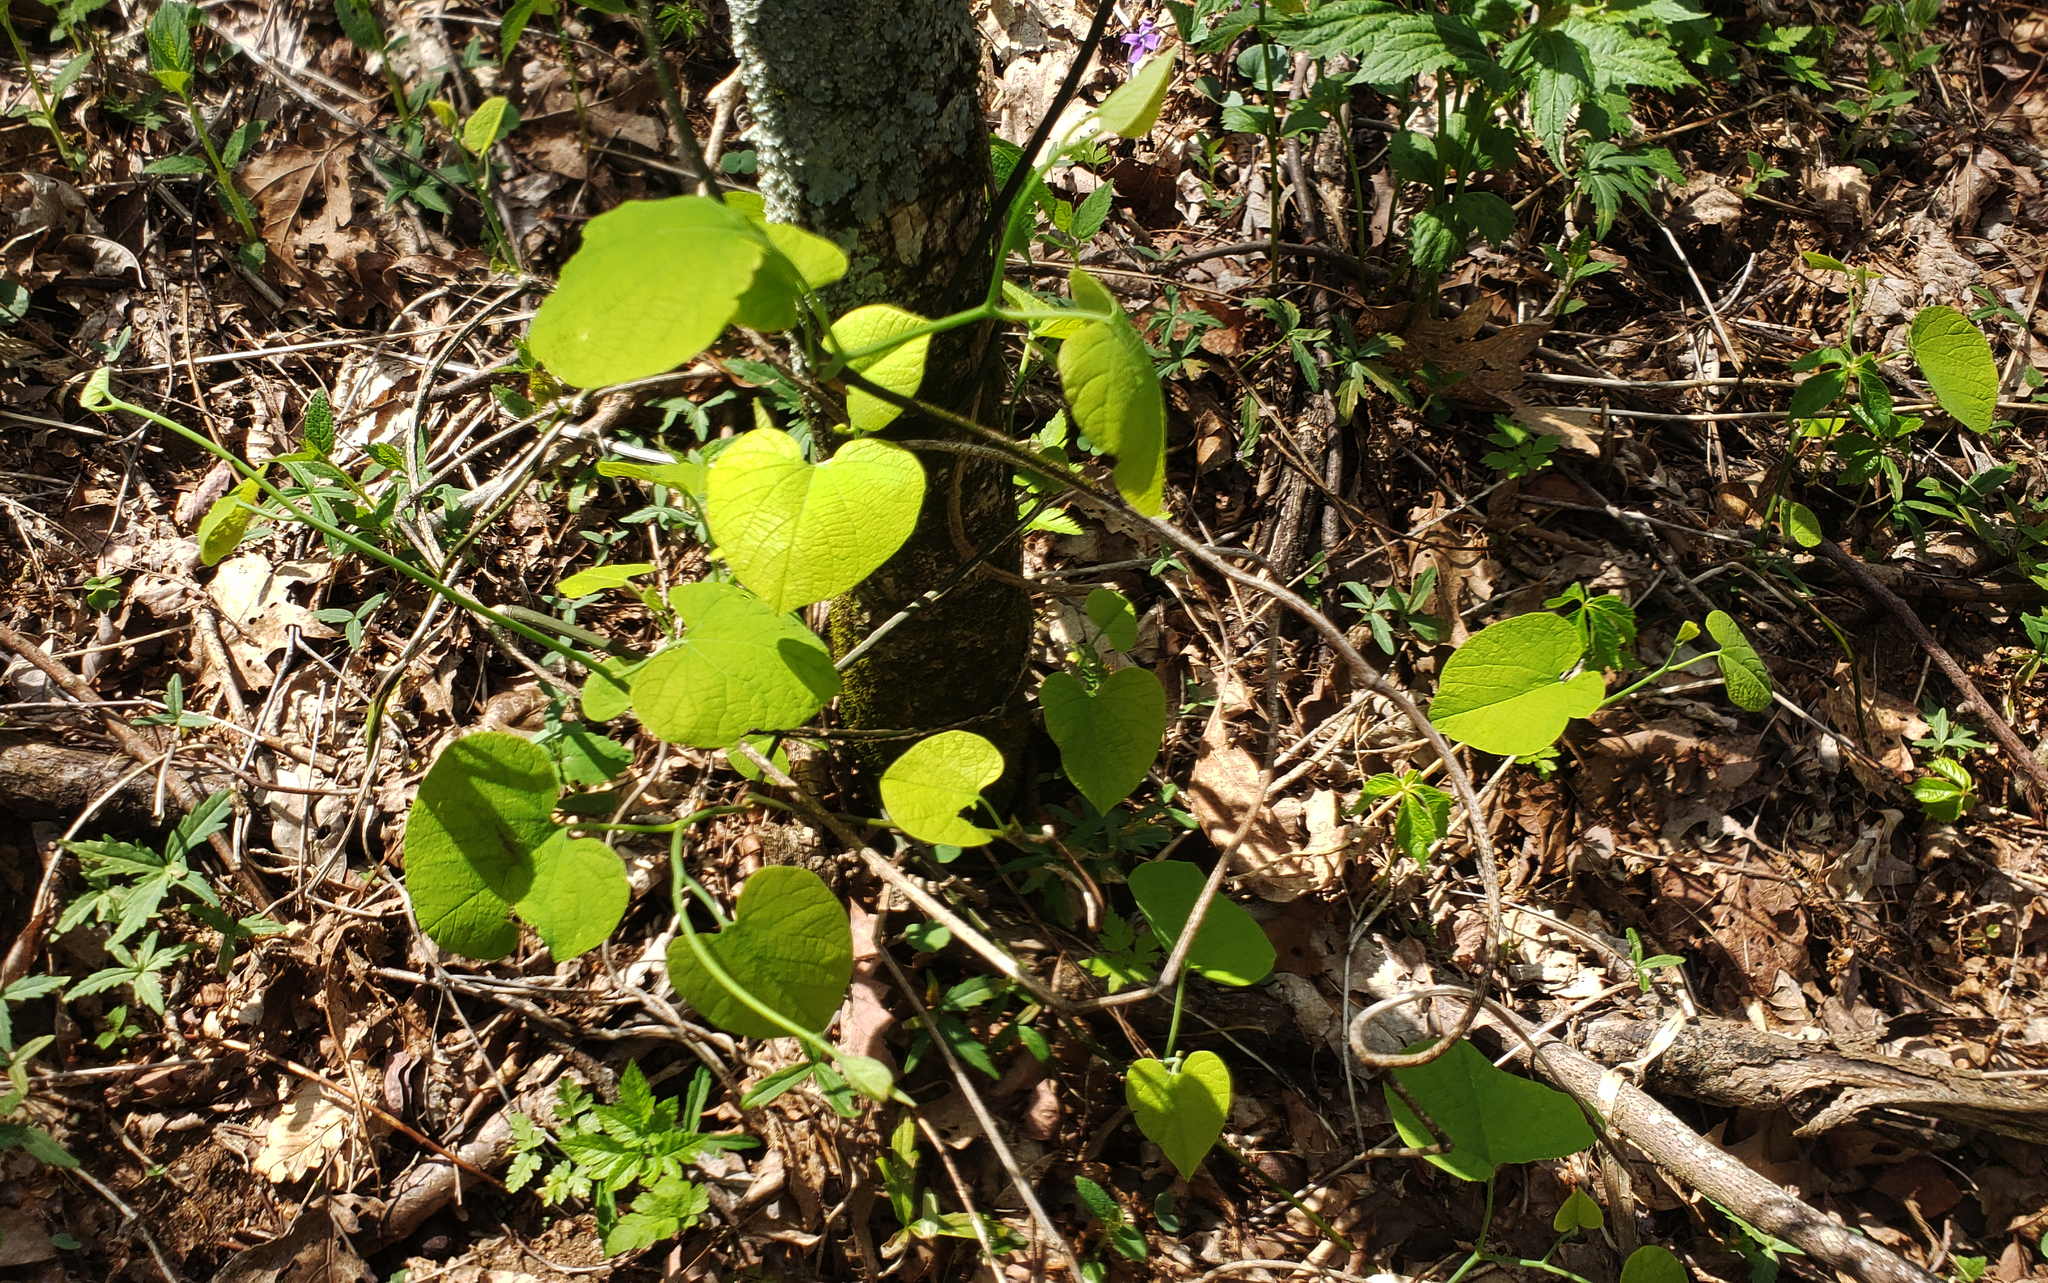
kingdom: Plantae
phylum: Tracheophyta
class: Magnoliopsida
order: Piperales
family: Aristolochiaceae
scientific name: Aristolochiaceae
